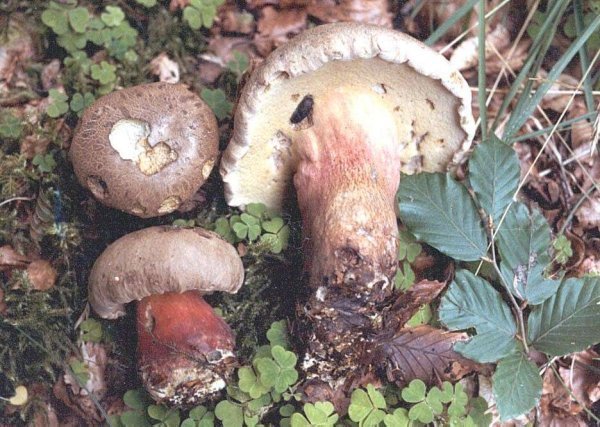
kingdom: Fungi
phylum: Basidiomycota
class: Agaricomycetes
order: Boletales
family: Boletaceae
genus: Caloboletus
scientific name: Caloboletus calopus
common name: Bitter beech bolete
